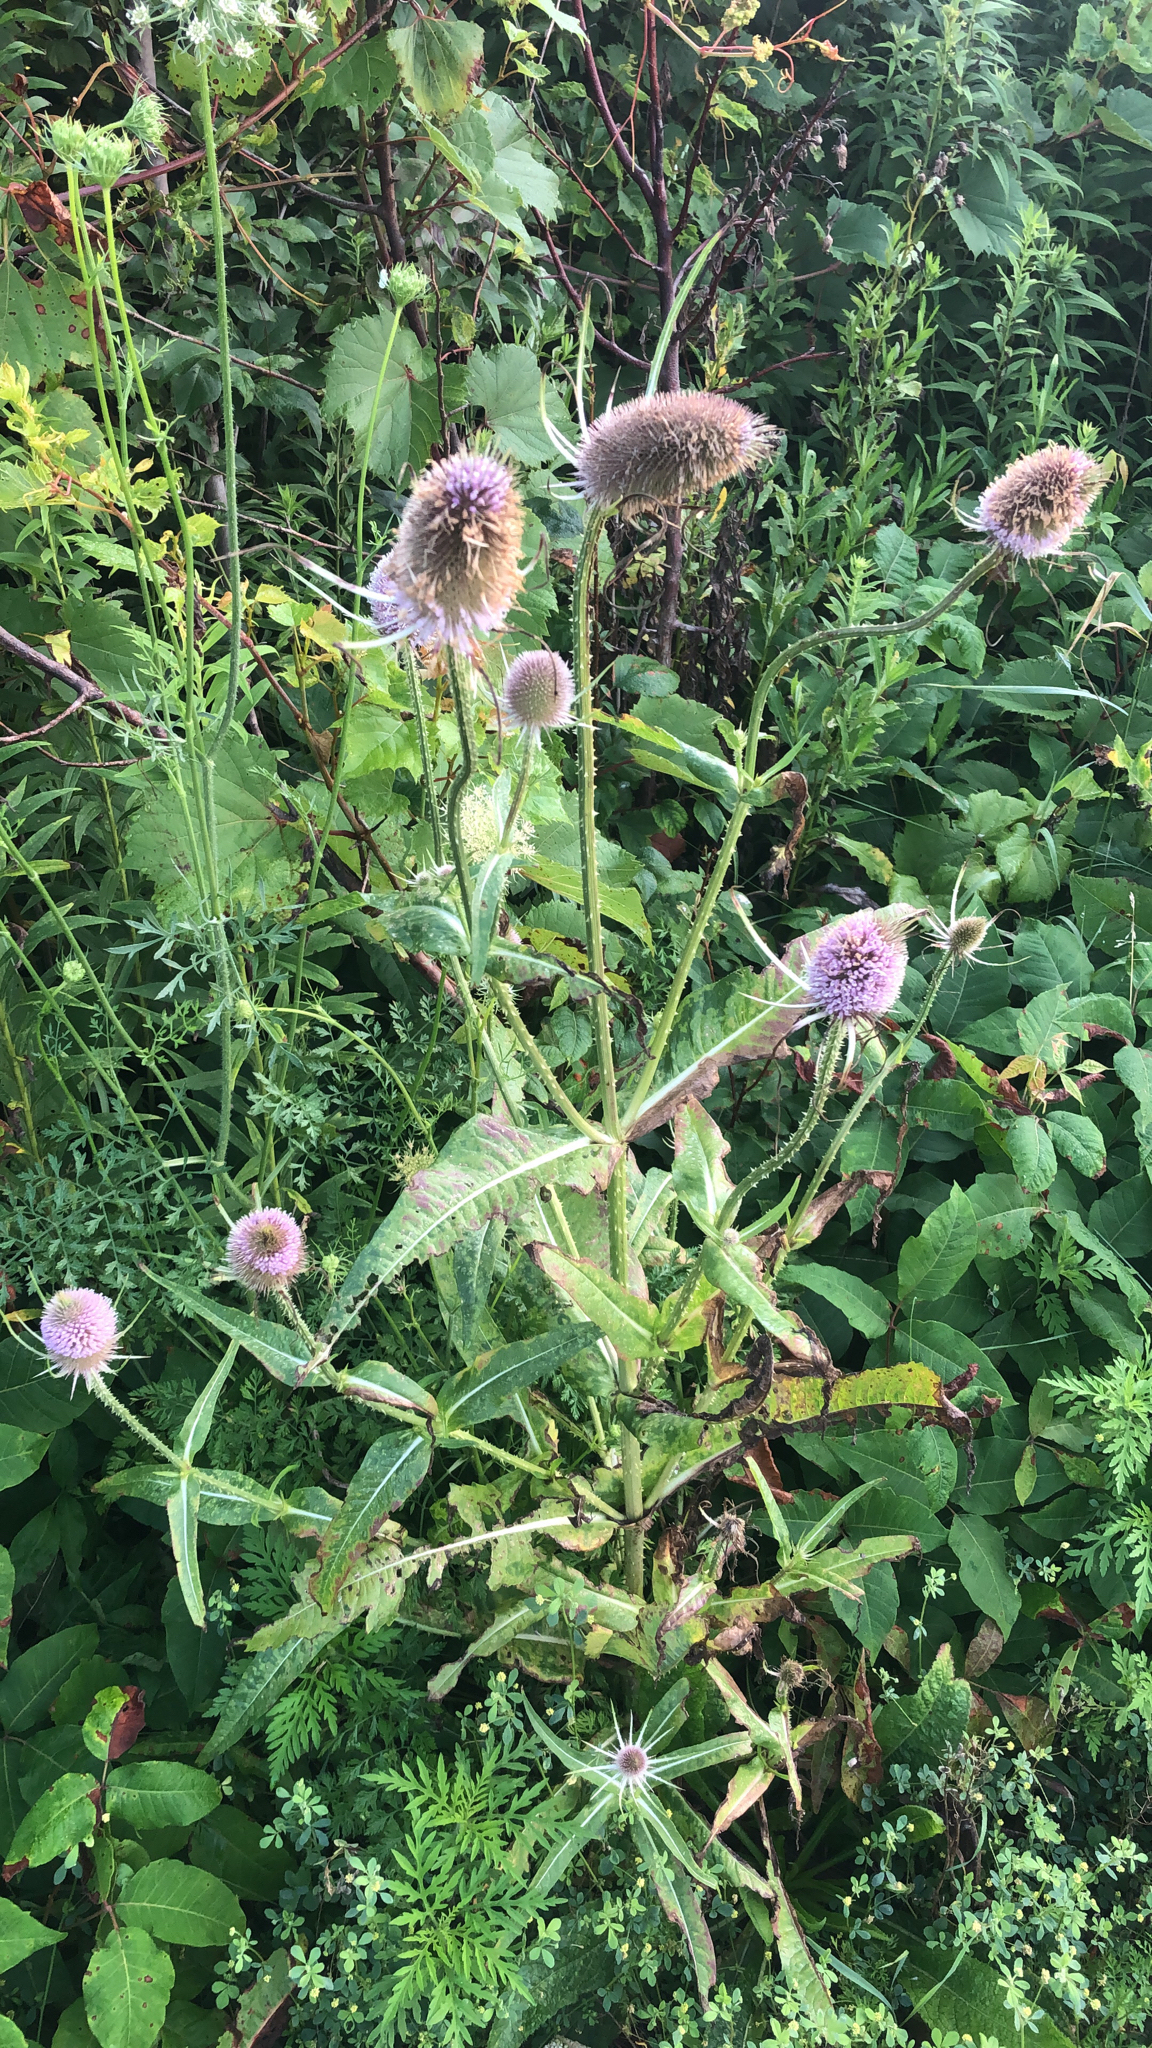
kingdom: Plantae
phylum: Tracheophyta
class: Magnoliopsida
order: Dipsacales
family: Caprifoliaceae
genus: Dipsacus
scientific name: Dipsacus fullonum
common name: Teasel
